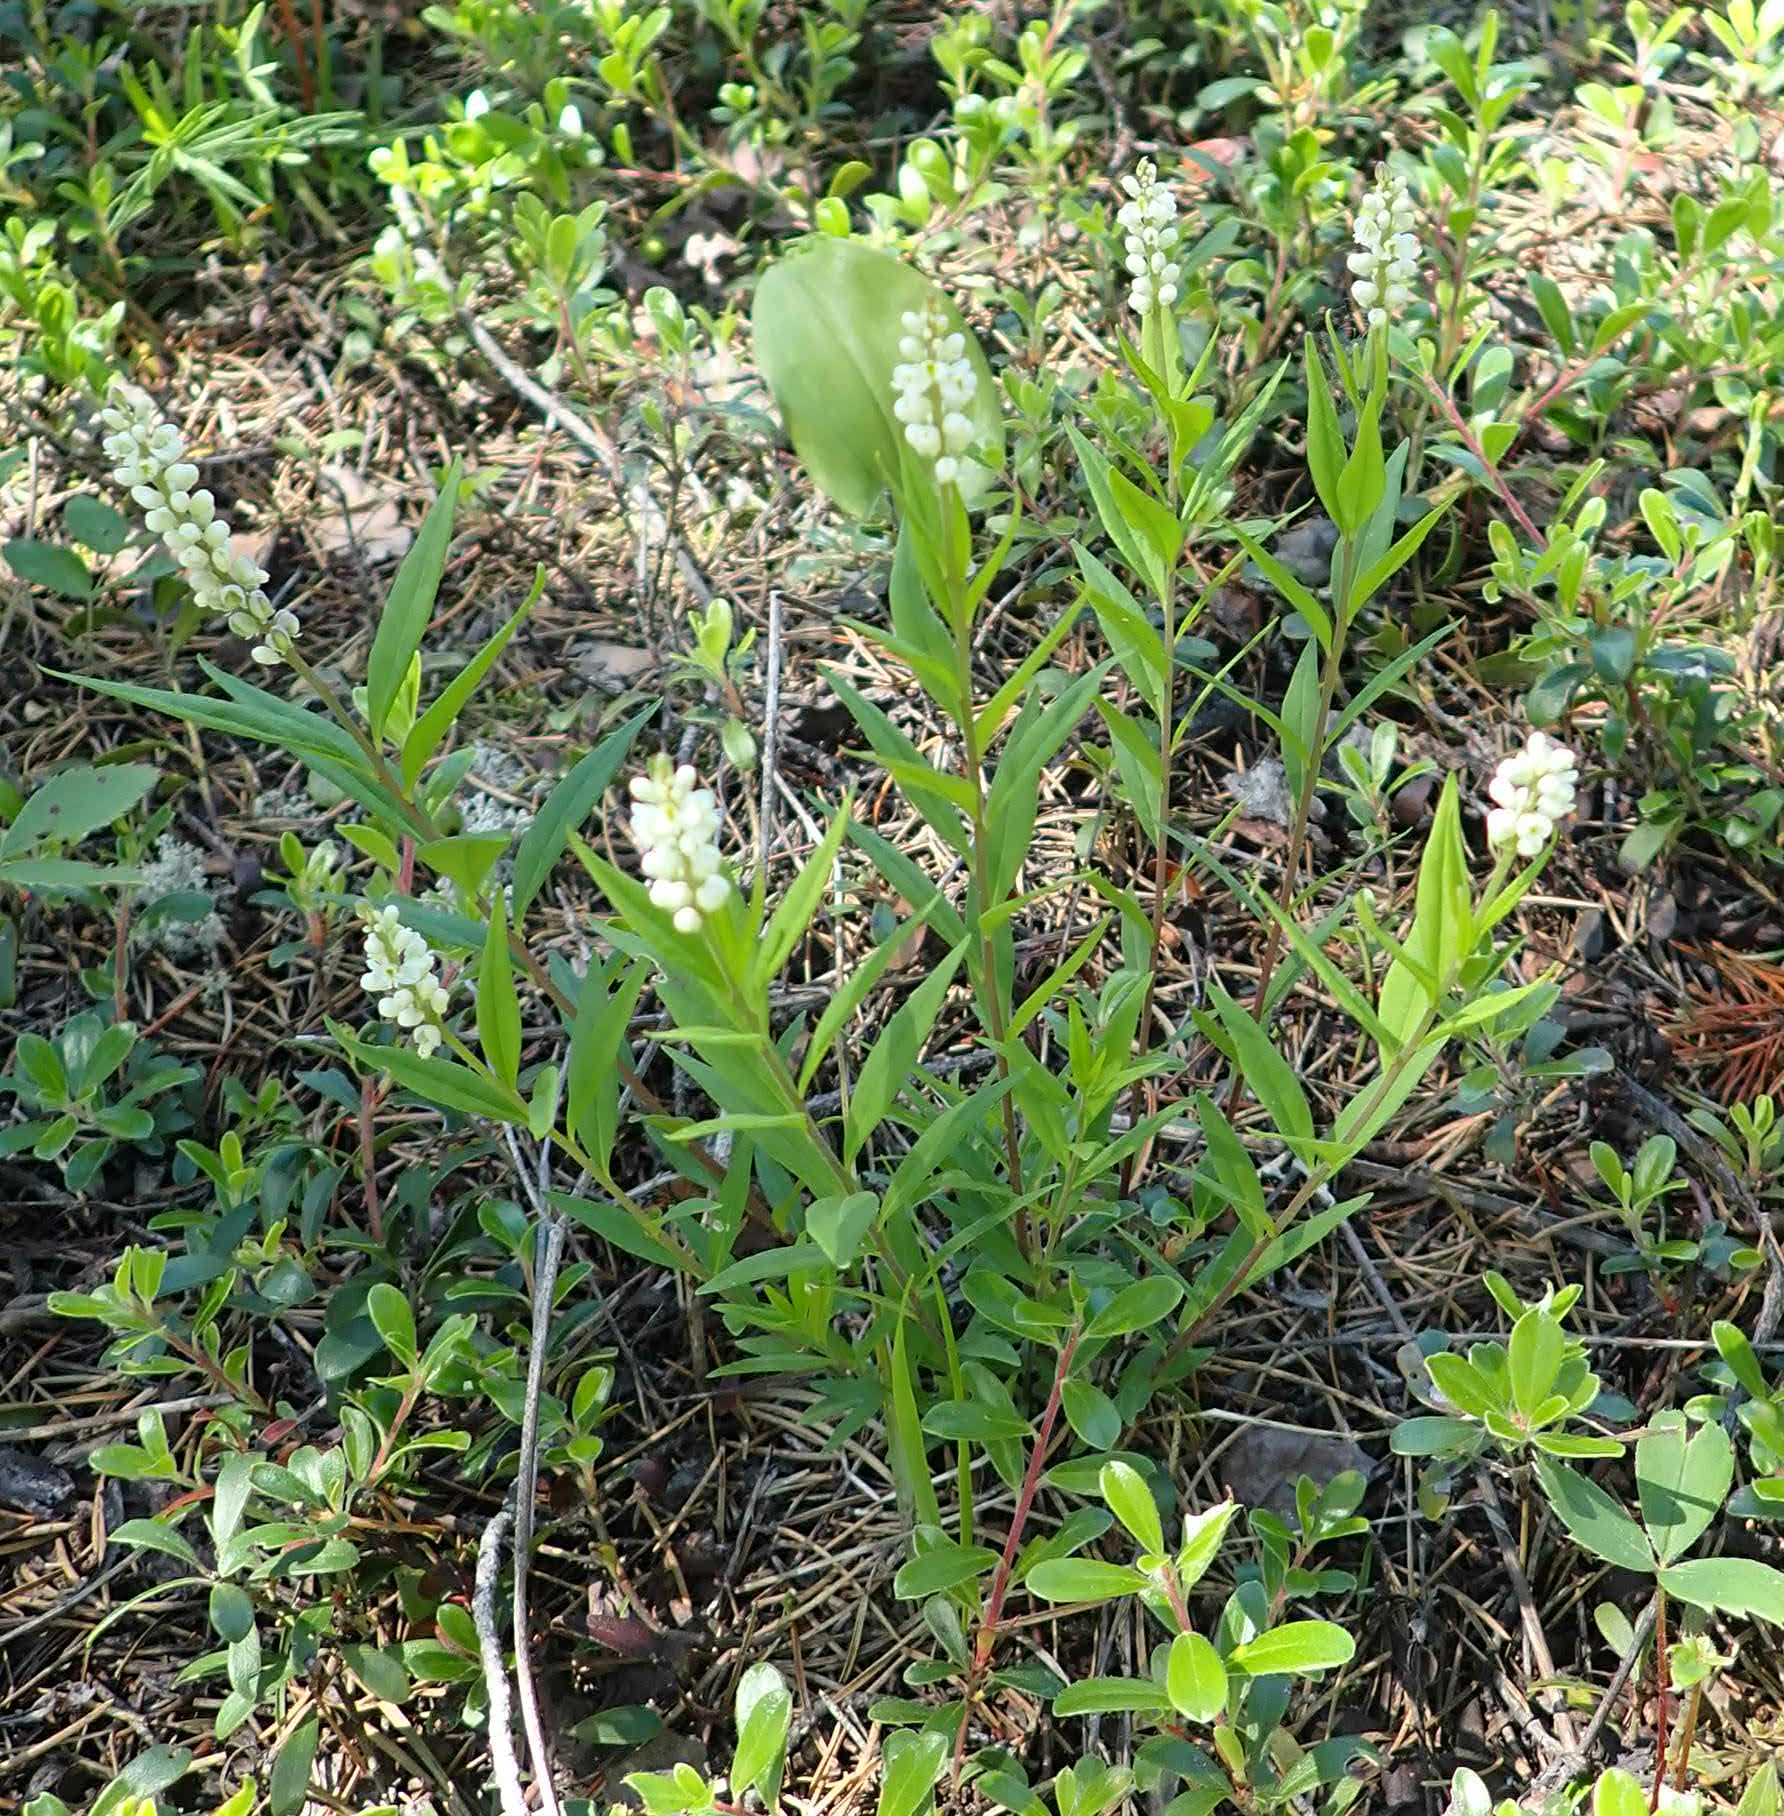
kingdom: Plantae
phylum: Tracheophyta
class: Magnoliopsida
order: Fabales
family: Polygalaceae
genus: Polygala
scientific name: Polygala senega
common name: Seneca snakeroot
